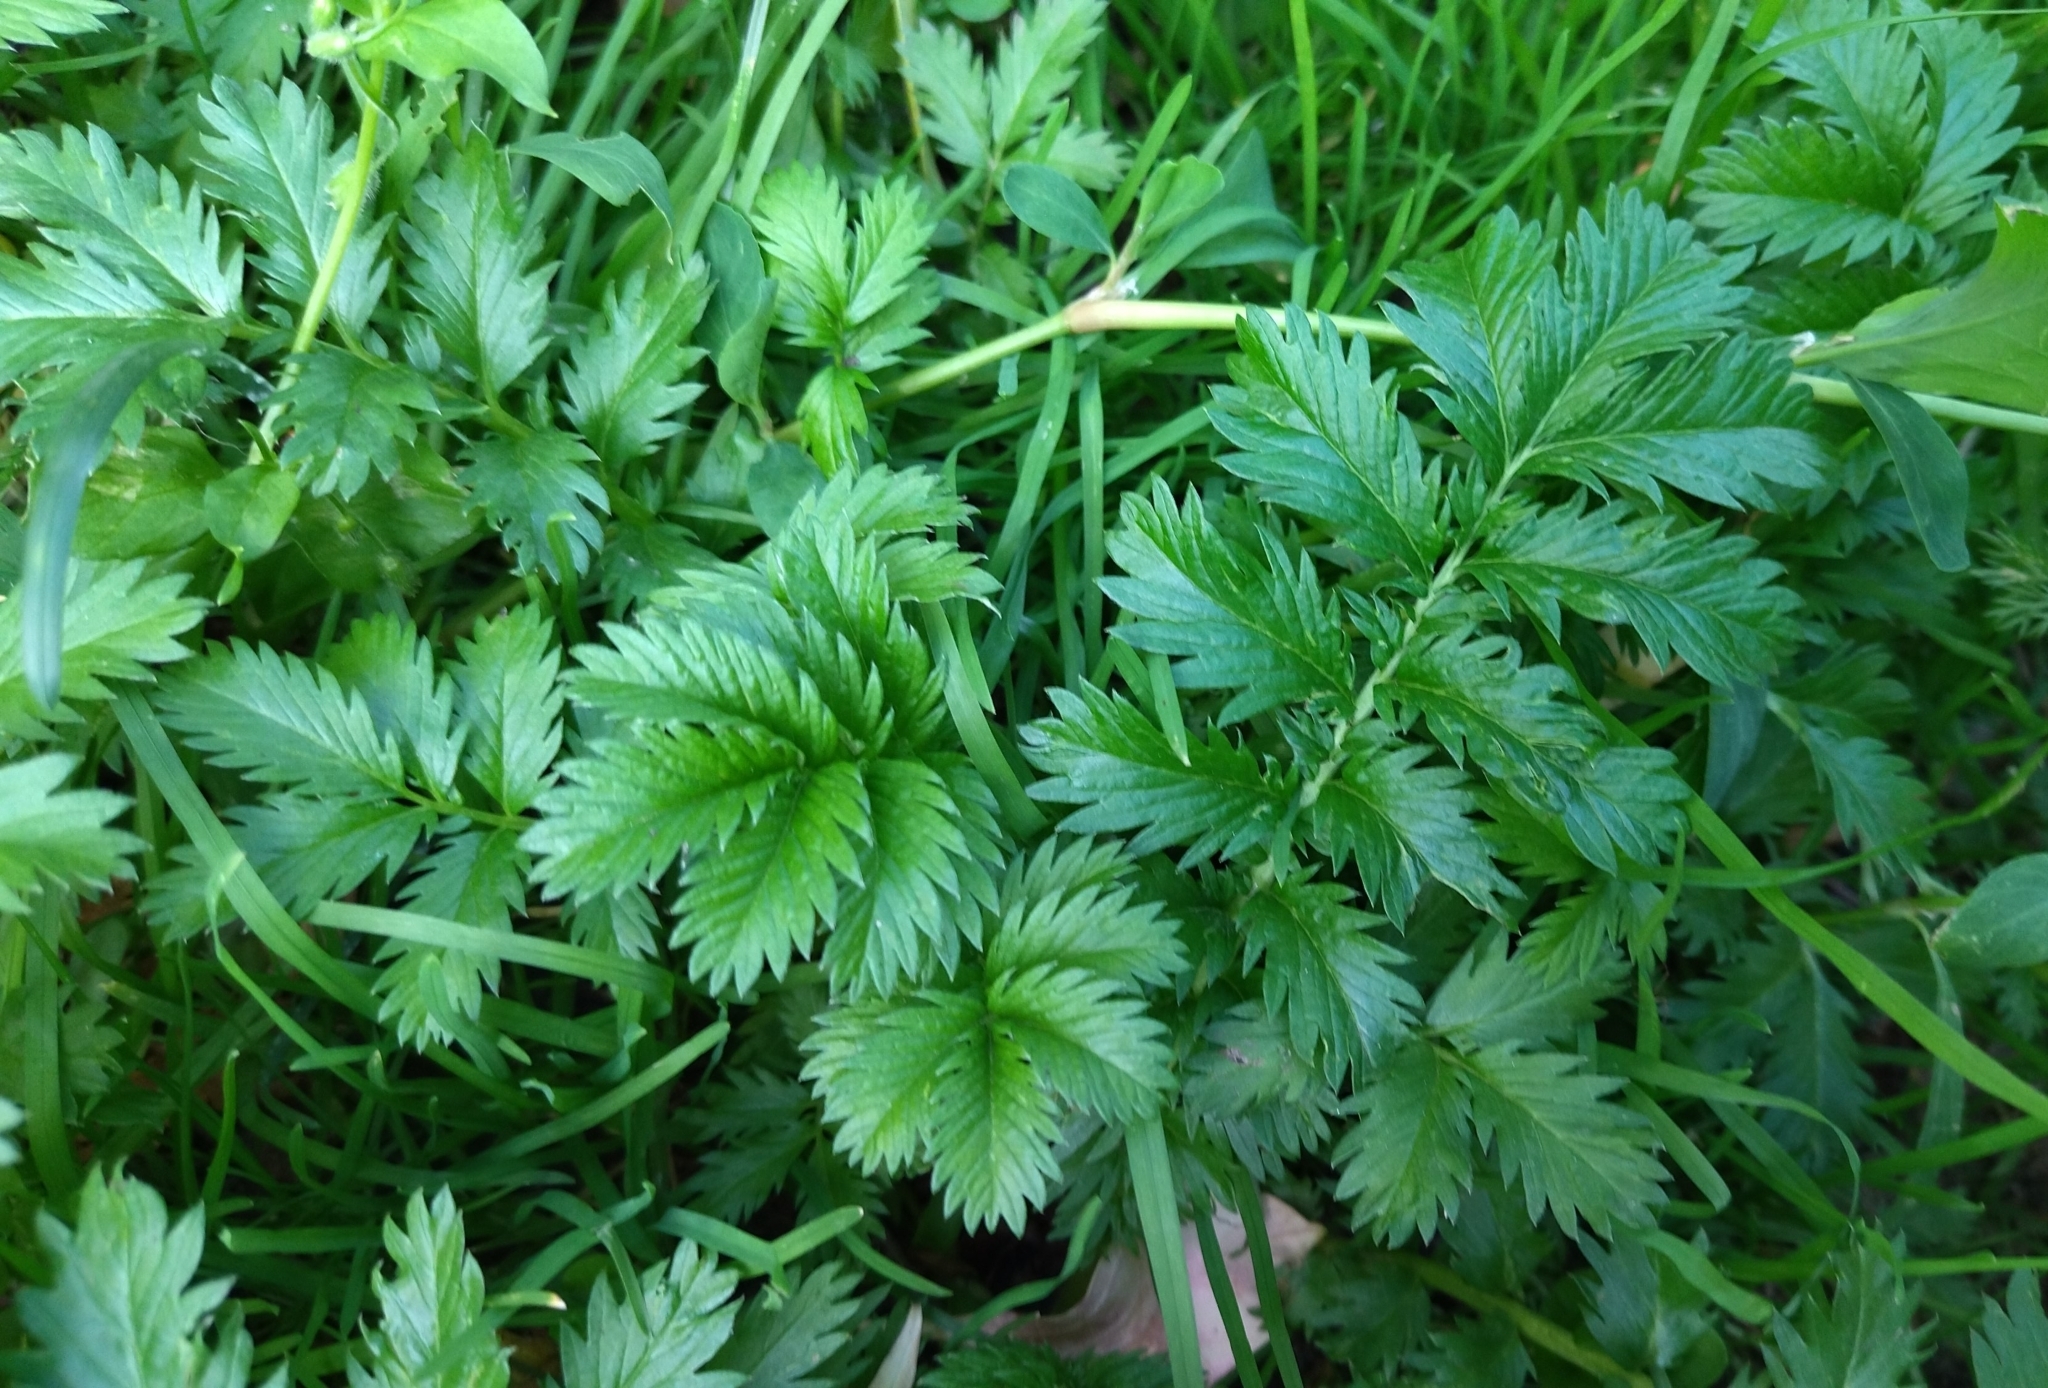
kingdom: Plantae
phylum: Tracheophyta
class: Magnoliopsida
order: Rosales
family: Rosaceae
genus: Argentina
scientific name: Argentina anserina
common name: Common silverweed
